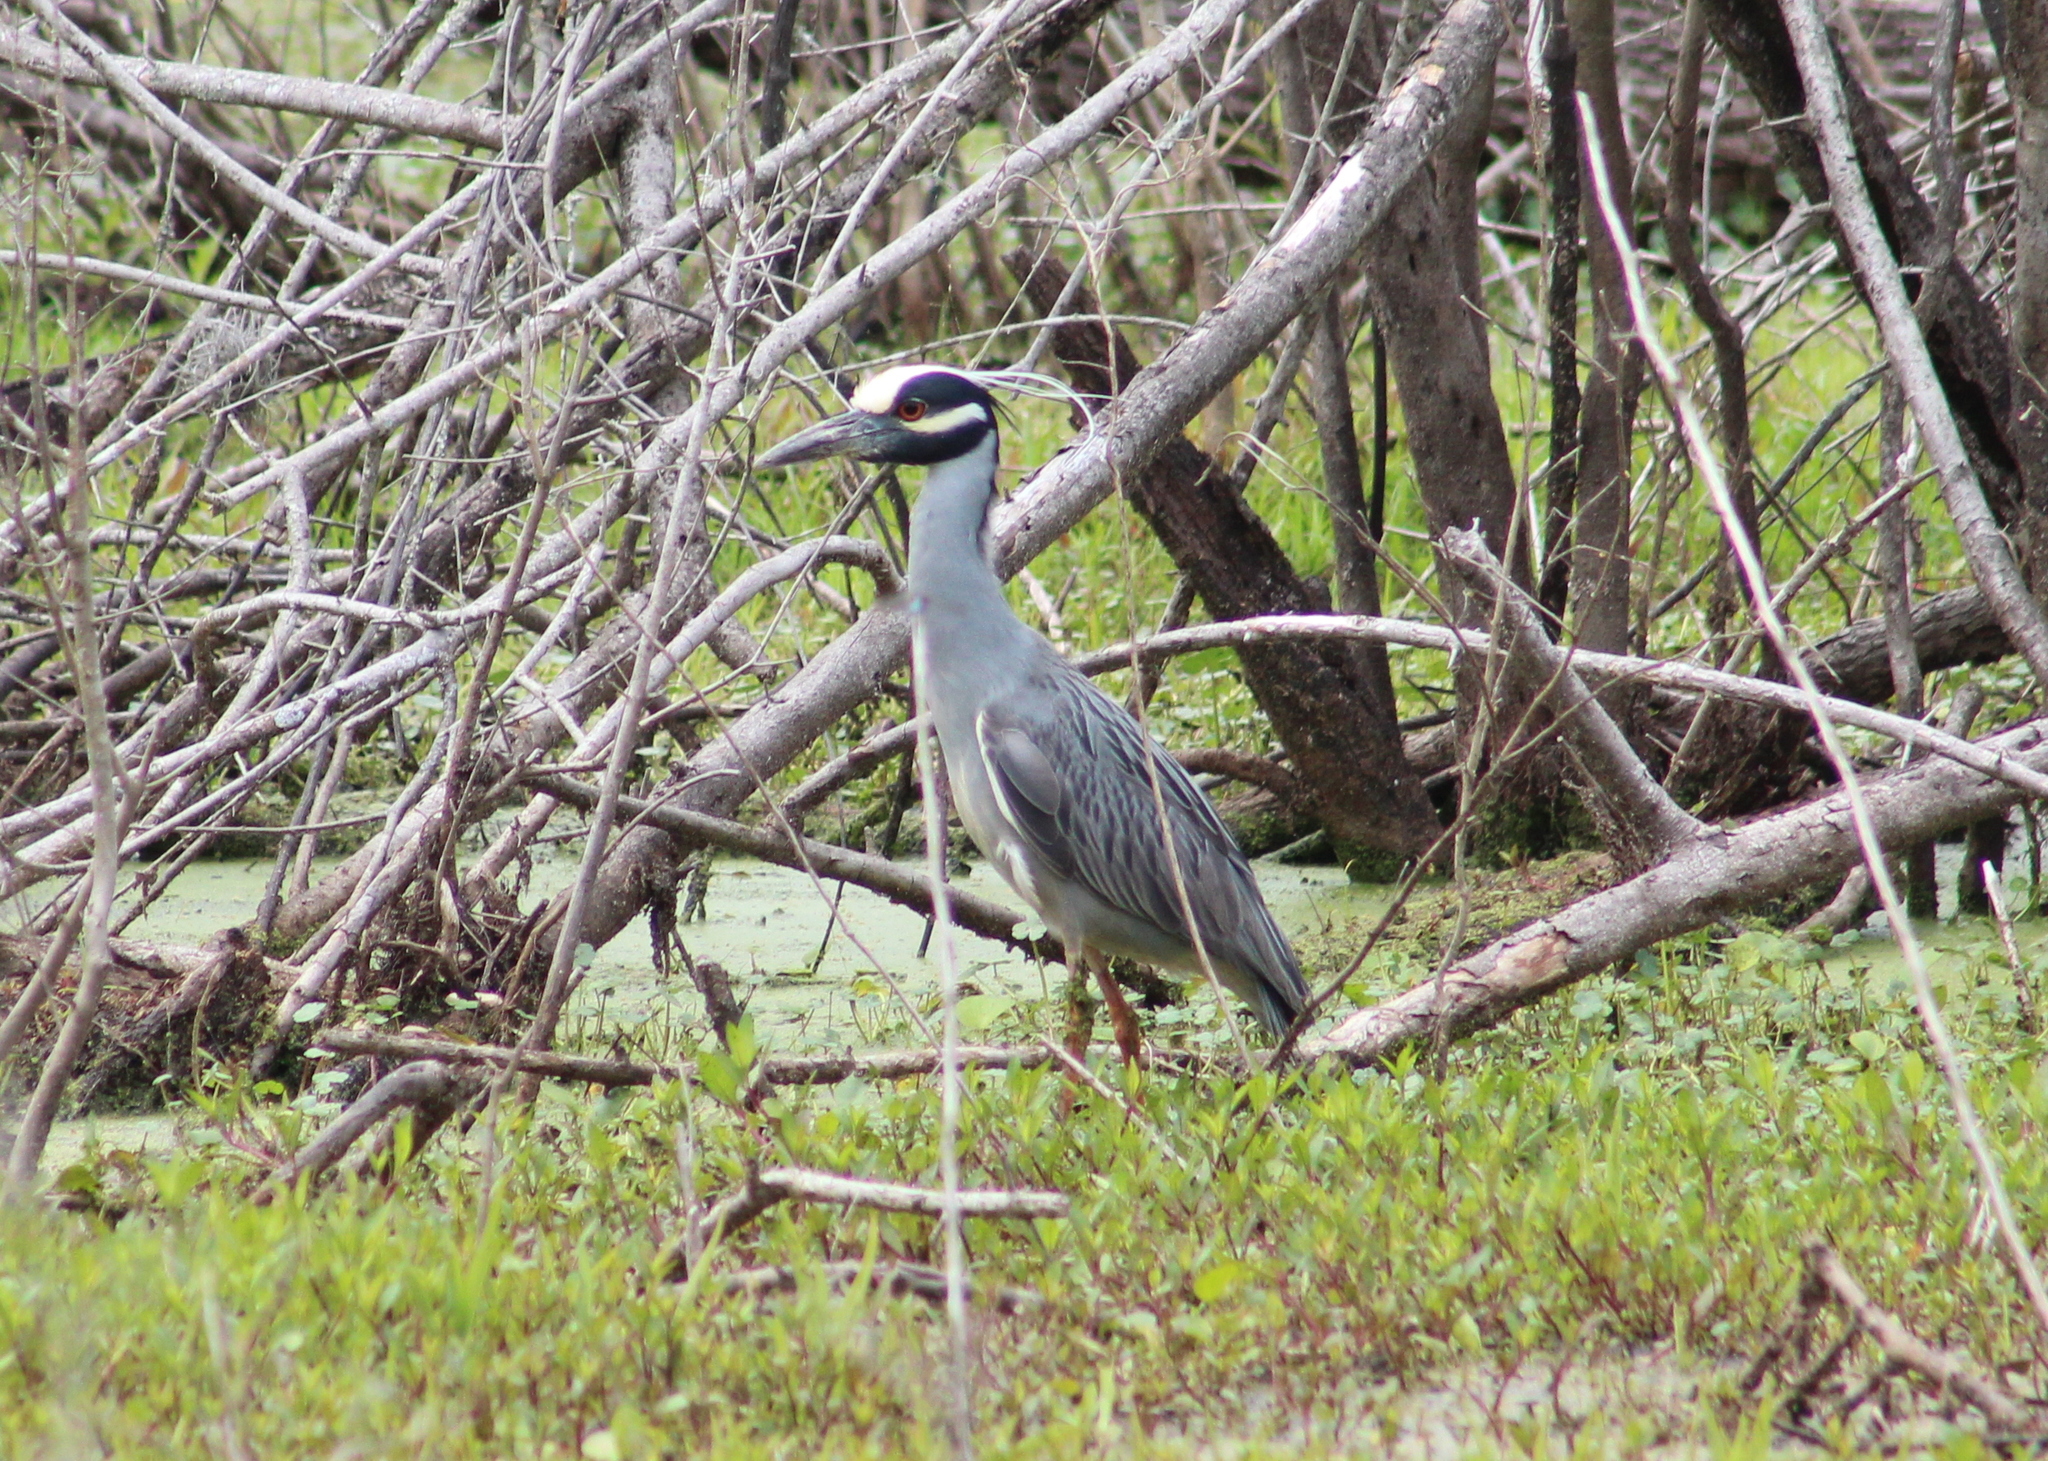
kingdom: Animalia
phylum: Chordata
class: Aves
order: Pelecaniformes
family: Ardeidae
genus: Nyctanassa
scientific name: Nyctanassa violacea
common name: Yellow-crowned night heron
